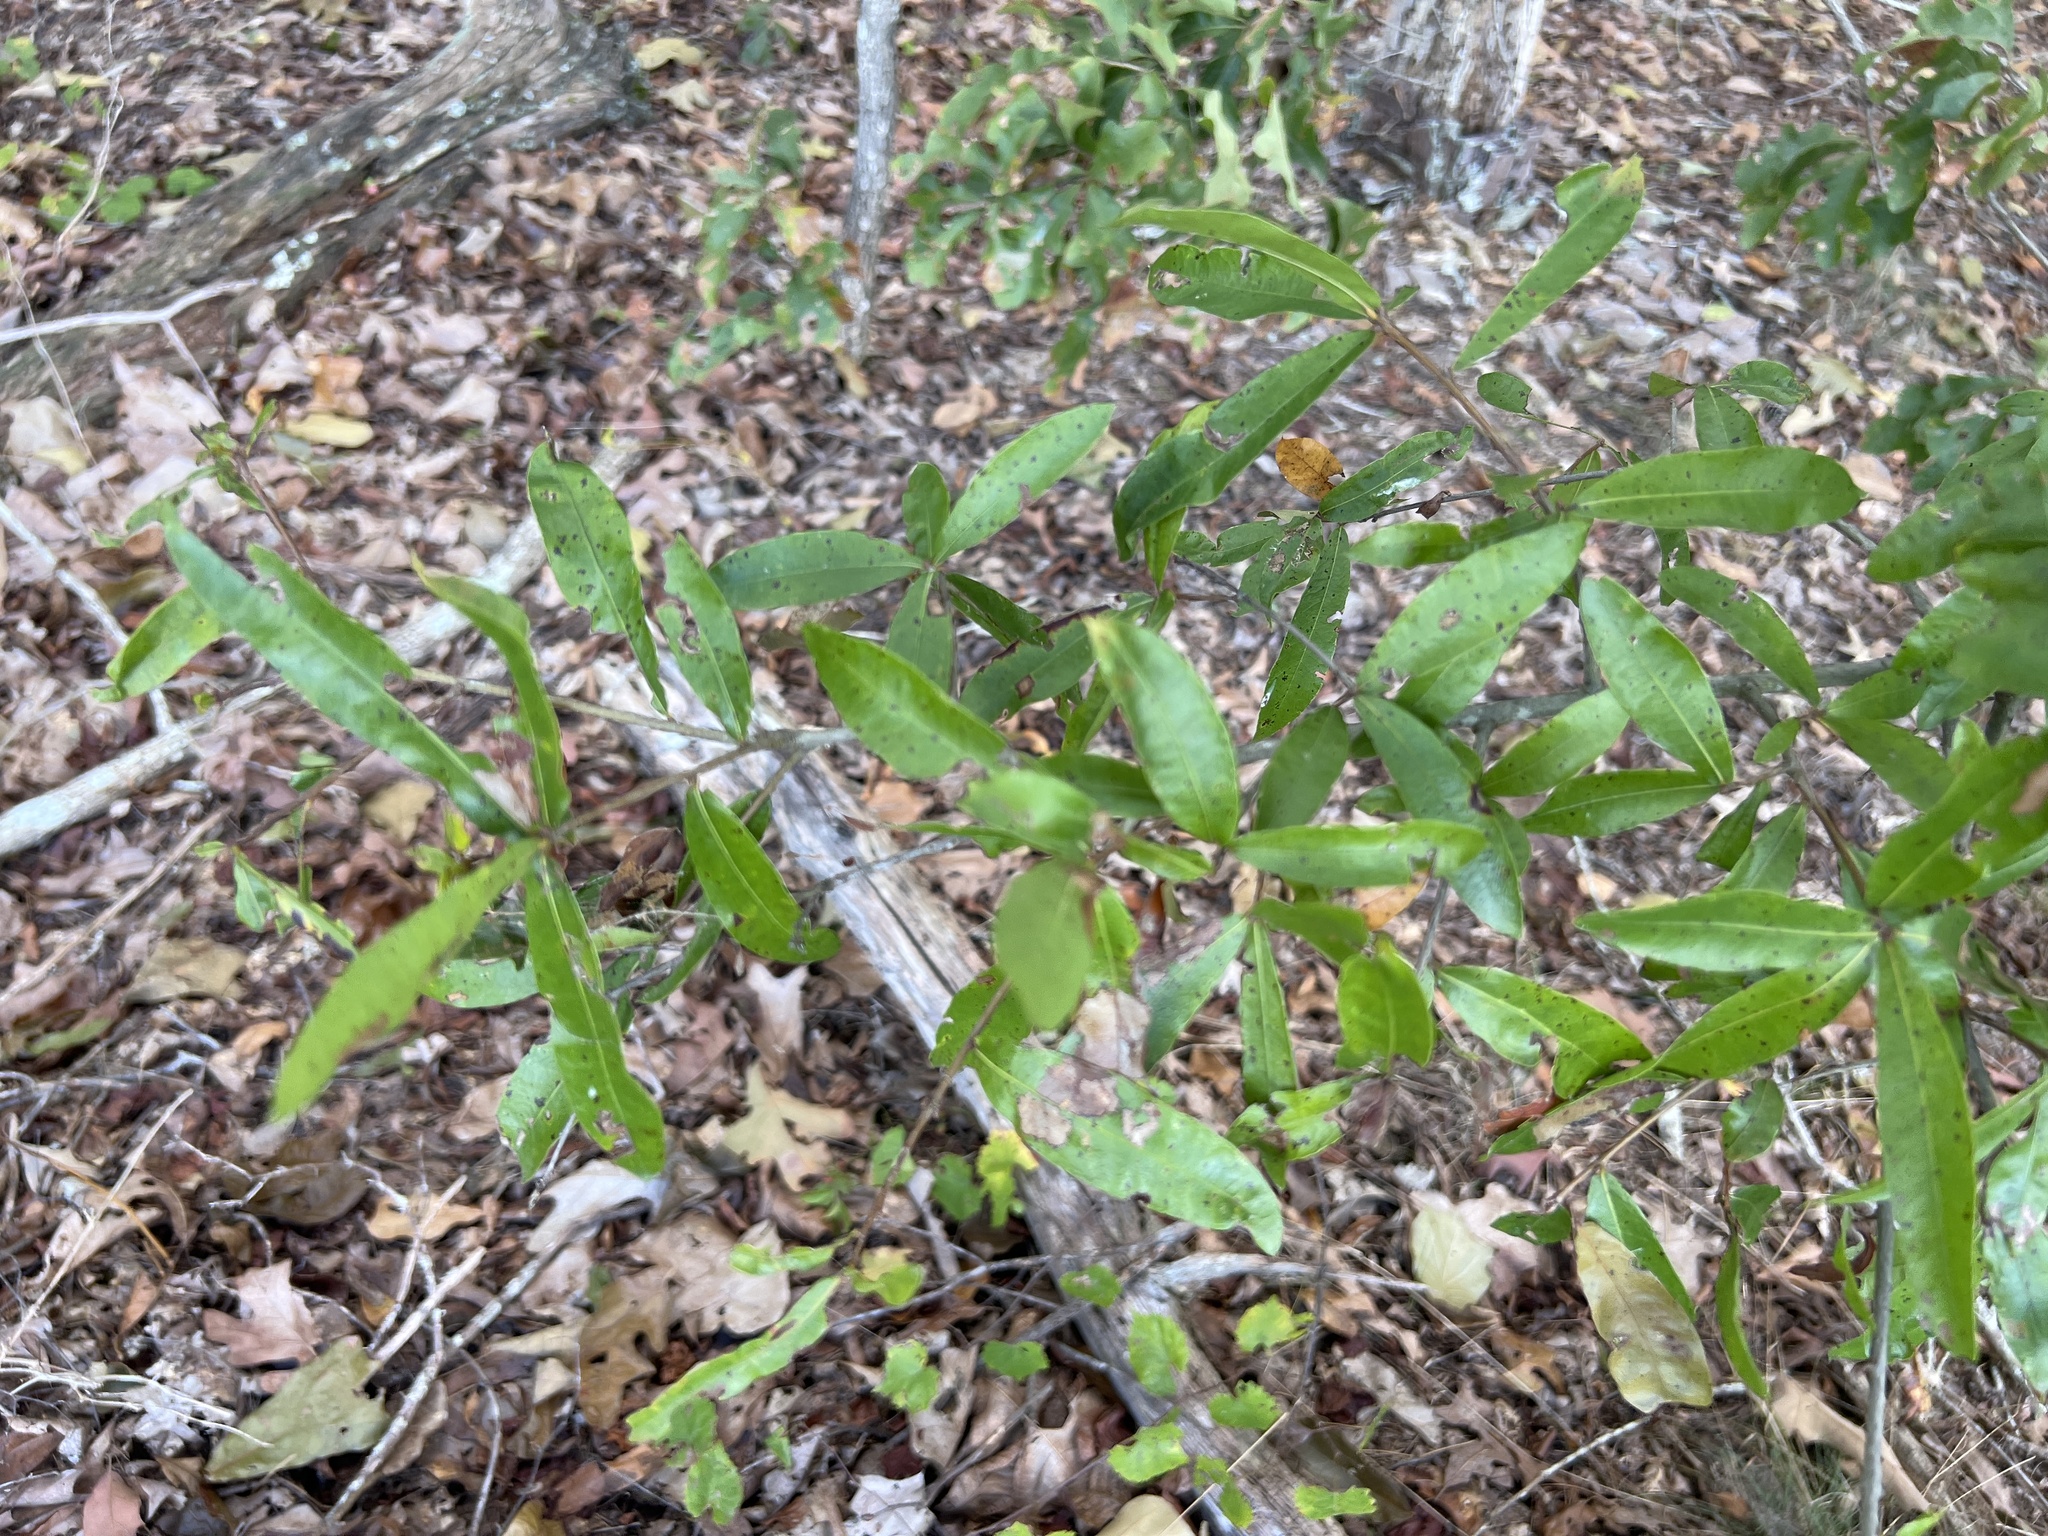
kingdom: Plantae
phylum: Tracheophyta
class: Magnoliopsida
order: Fagales
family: Fagaceae
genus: Quercus
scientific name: Quercus phellos
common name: Willow oak
